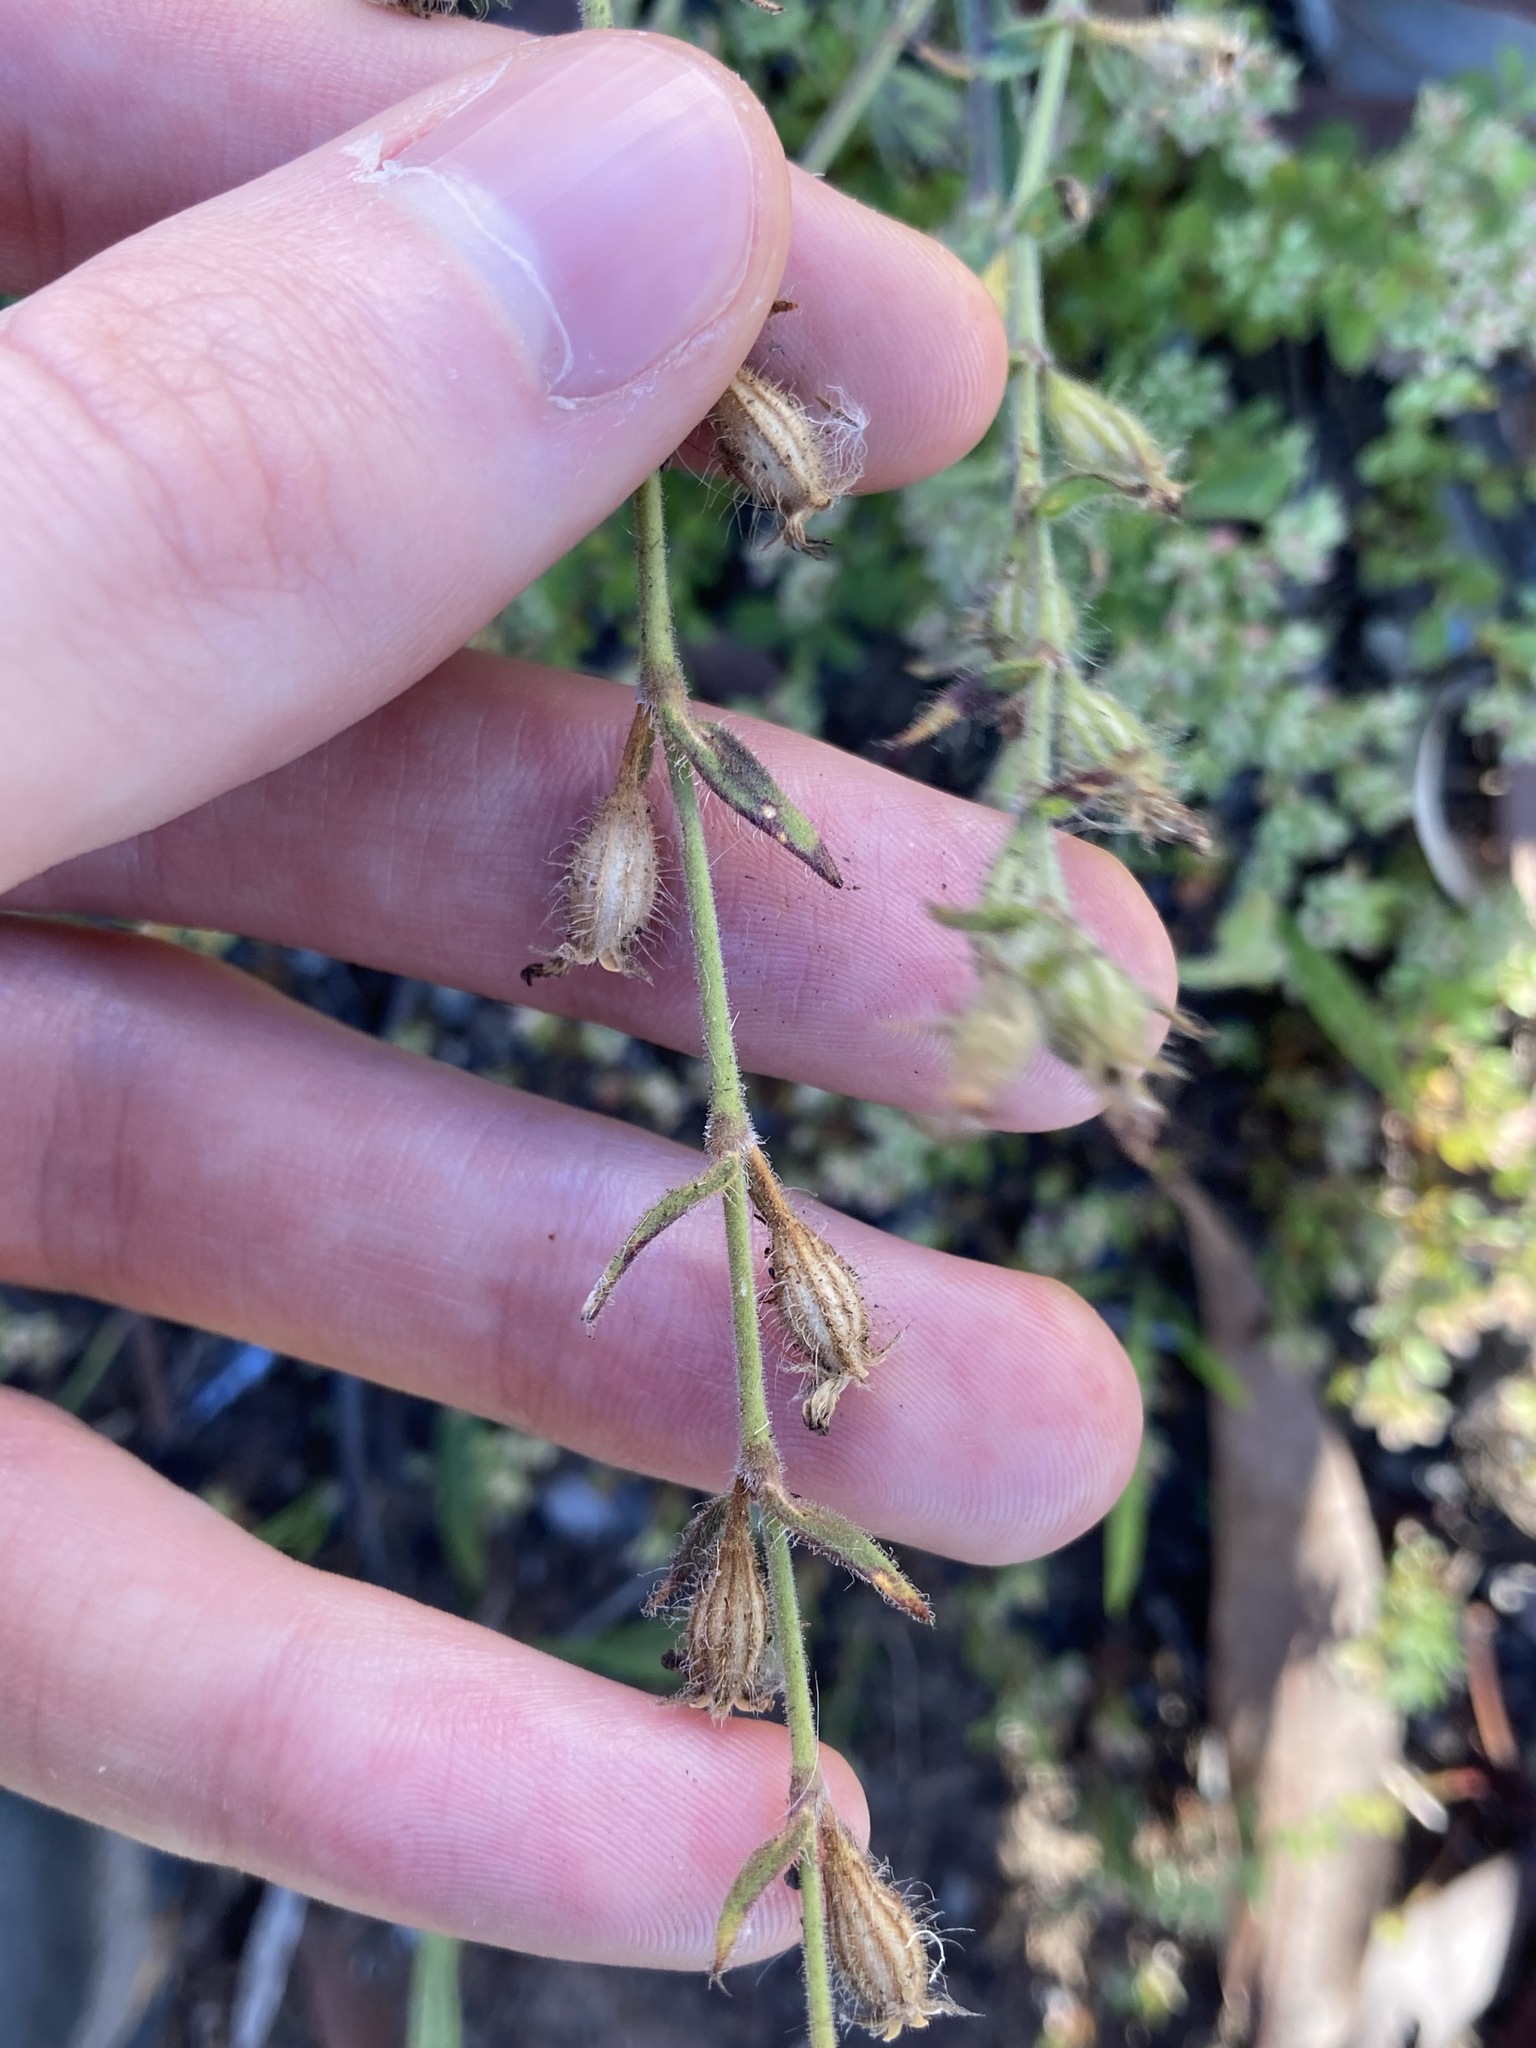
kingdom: Plantae
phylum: Tracheophyta
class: Magnoliopsida
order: Caryophyllales
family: Caryophyllaceae
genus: Silene
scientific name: Silene gallica
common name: Small-flowered catchfly
